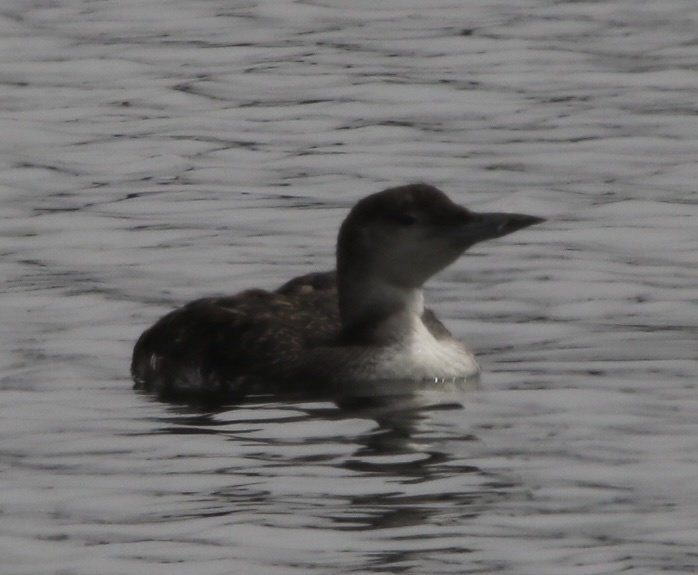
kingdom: Animalia
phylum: Chordata
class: Aves
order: Gaviiformes
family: Gaviidae
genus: Gavia
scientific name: Gavia immer
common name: Common loon
